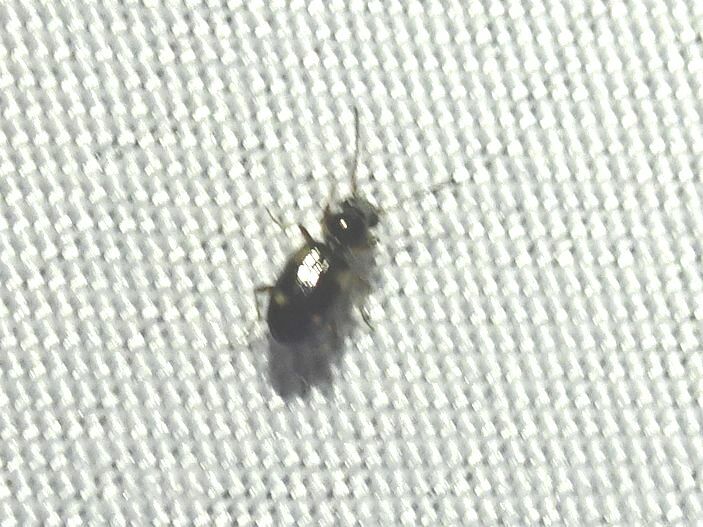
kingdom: Animalia
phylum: Arthropoda
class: Insecta
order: Coleoptera
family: Carabidae
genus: Bembidion
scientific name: Bembidion quadrimaculatum
